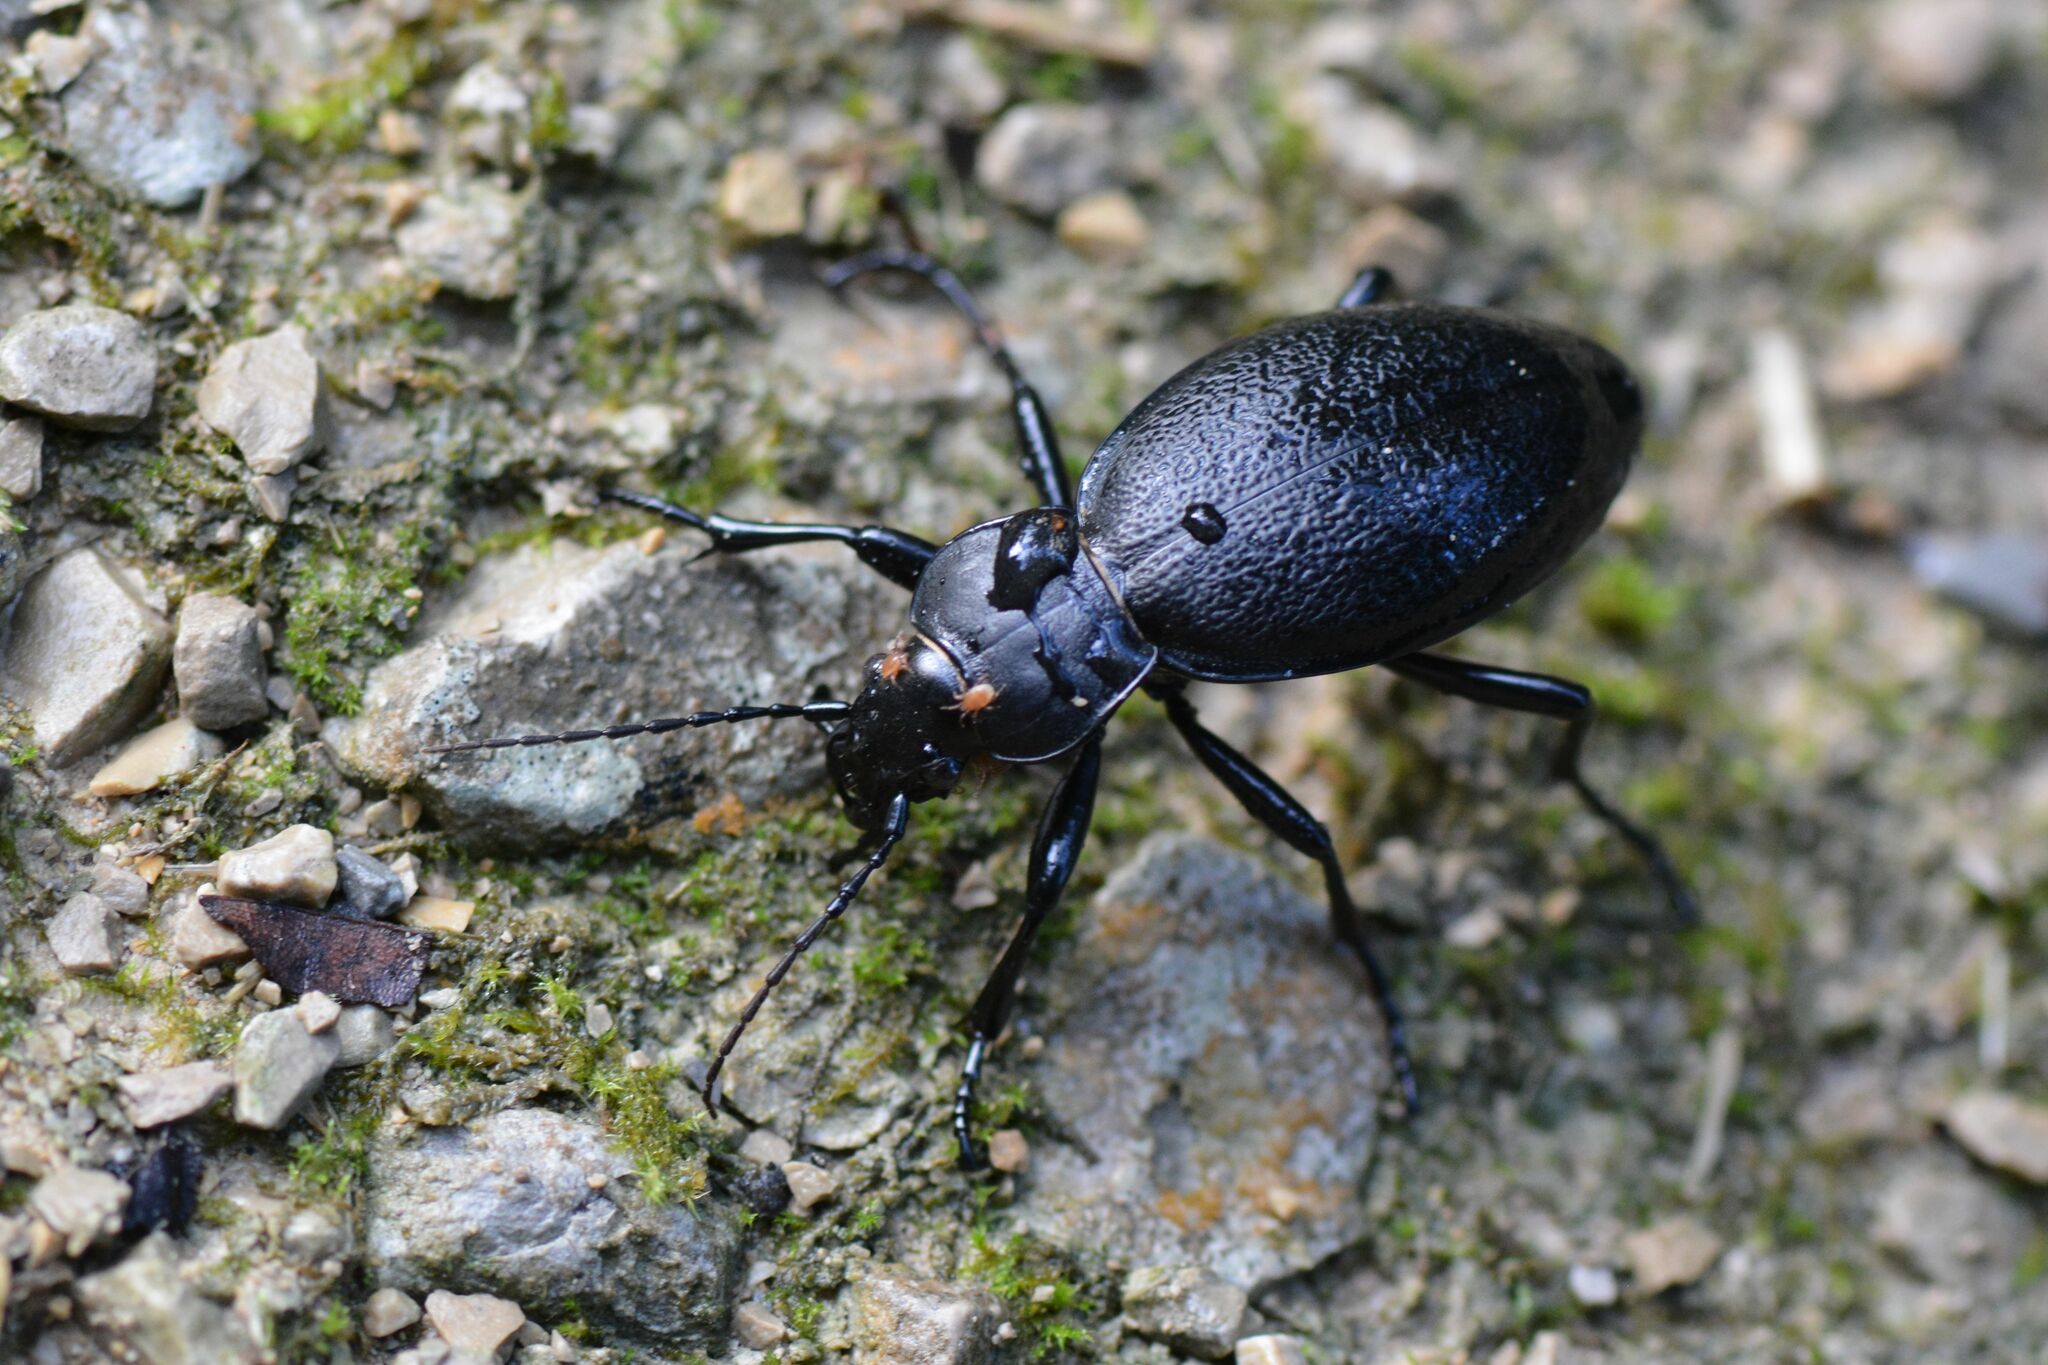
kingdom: Animalia
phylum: Arthropoda
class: Insecta
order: Coleoptera
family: Carabidae
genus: Carabus
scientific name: Carabus coriaceus
